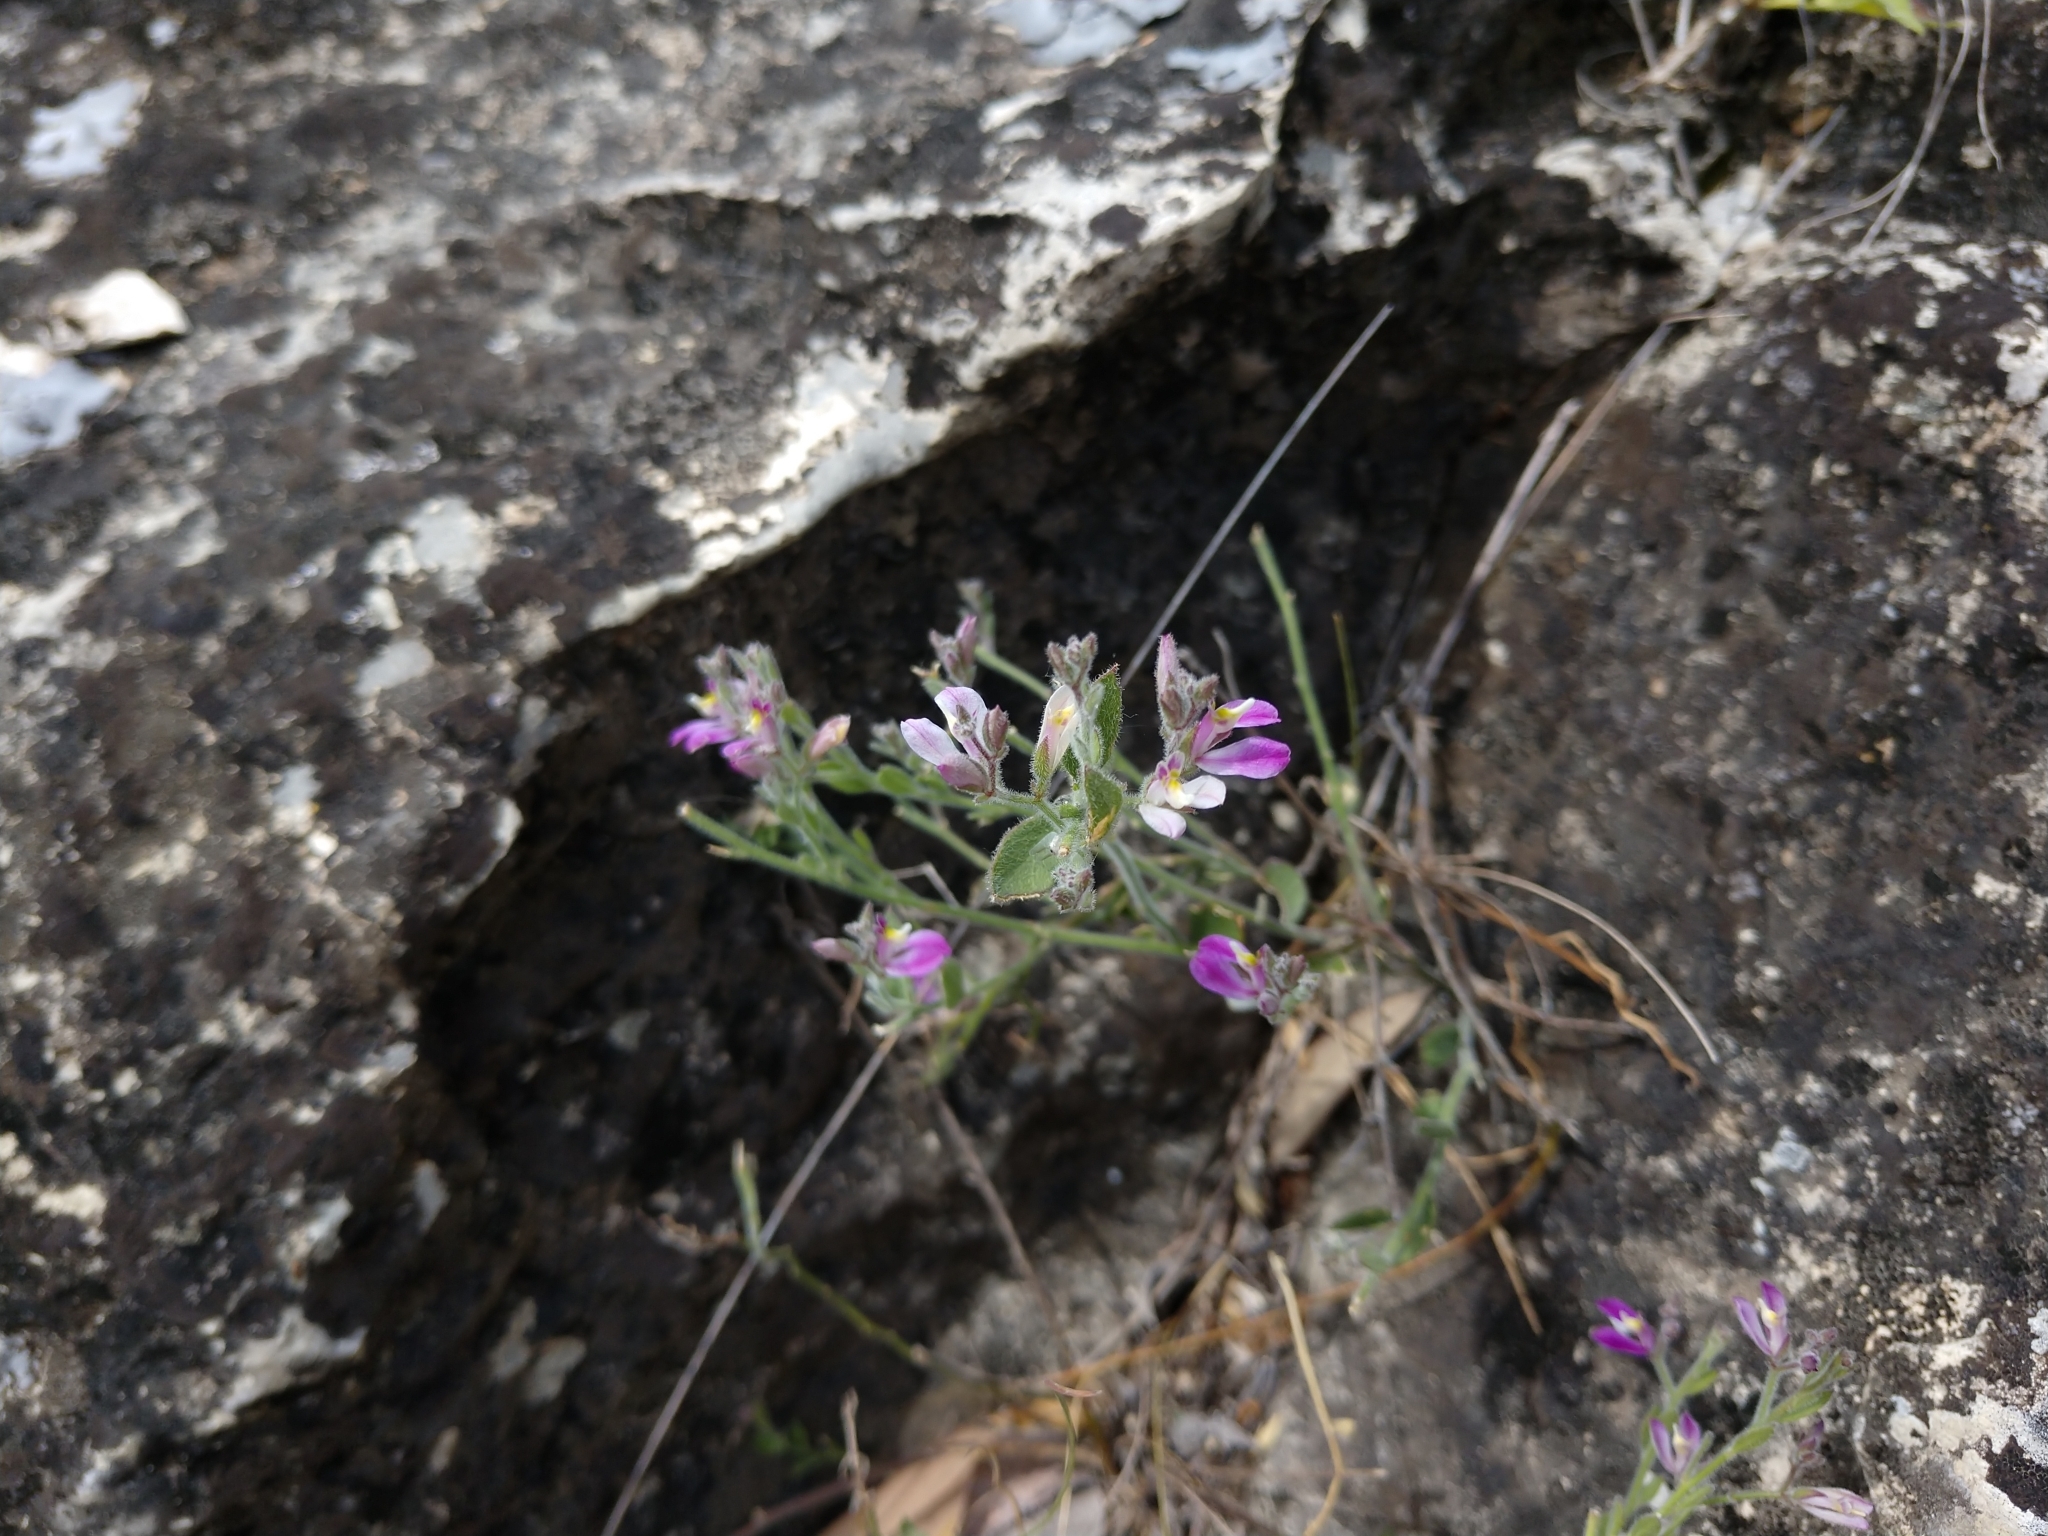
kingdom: Plantae
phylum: Tracheophyta
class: Magnoliopsida
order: Fabales
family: Polygalaceae
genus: Rhinotropis
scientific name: Rhinotropis lindheimeri
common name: Shrubby milkwort
